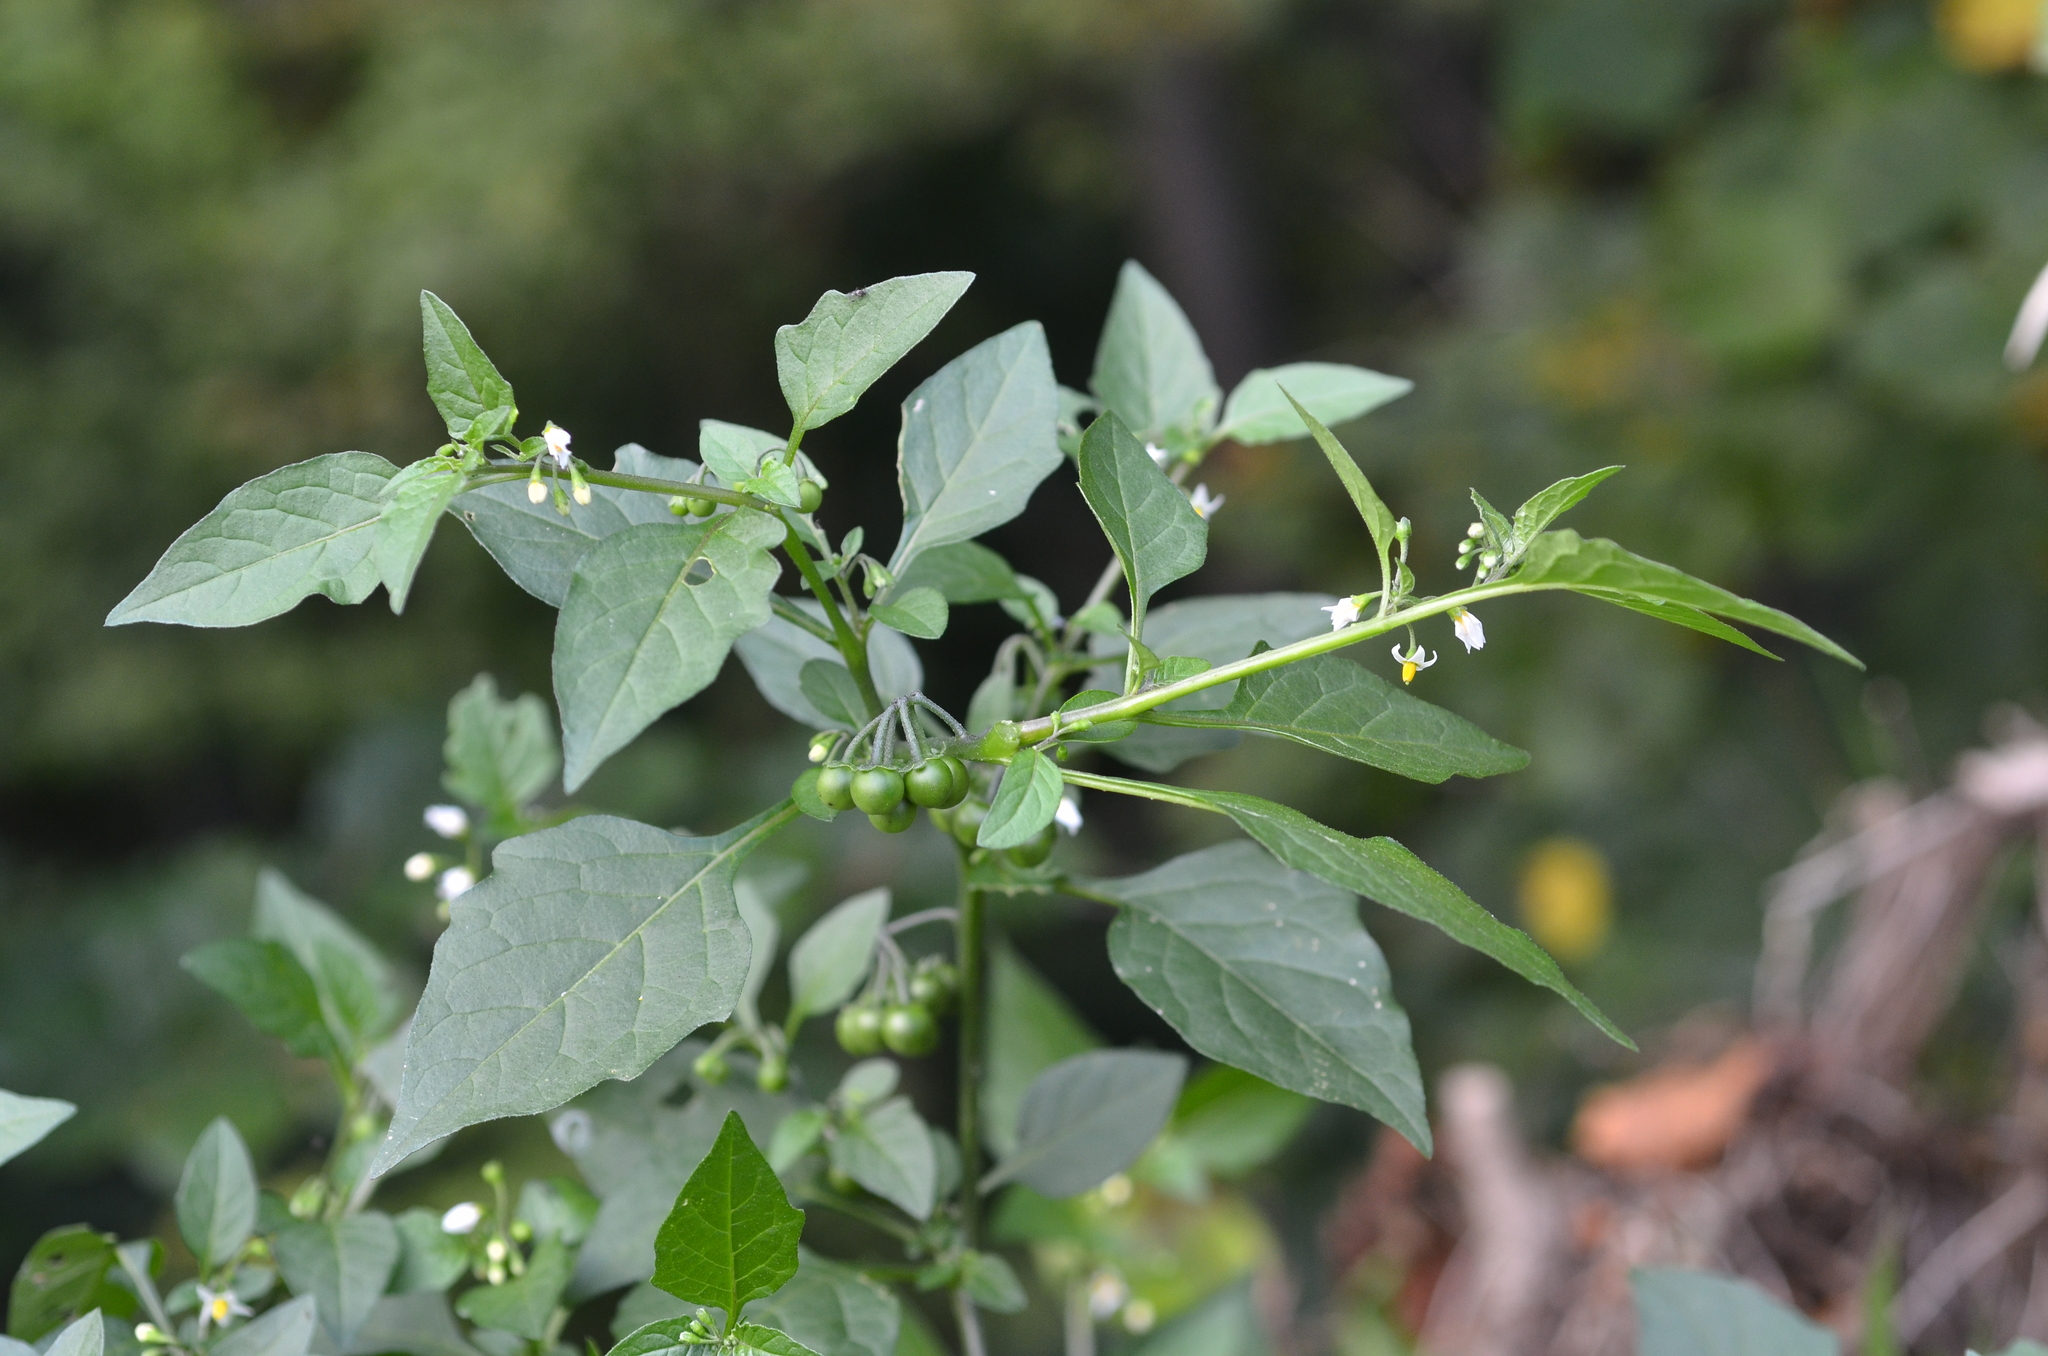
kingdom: Plantae
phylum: Tracheophyta
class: Magnoliopsida
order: Solanales
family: Solanaceae
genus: Solanum
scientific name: Solanum nigrum
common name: Black nightshade
